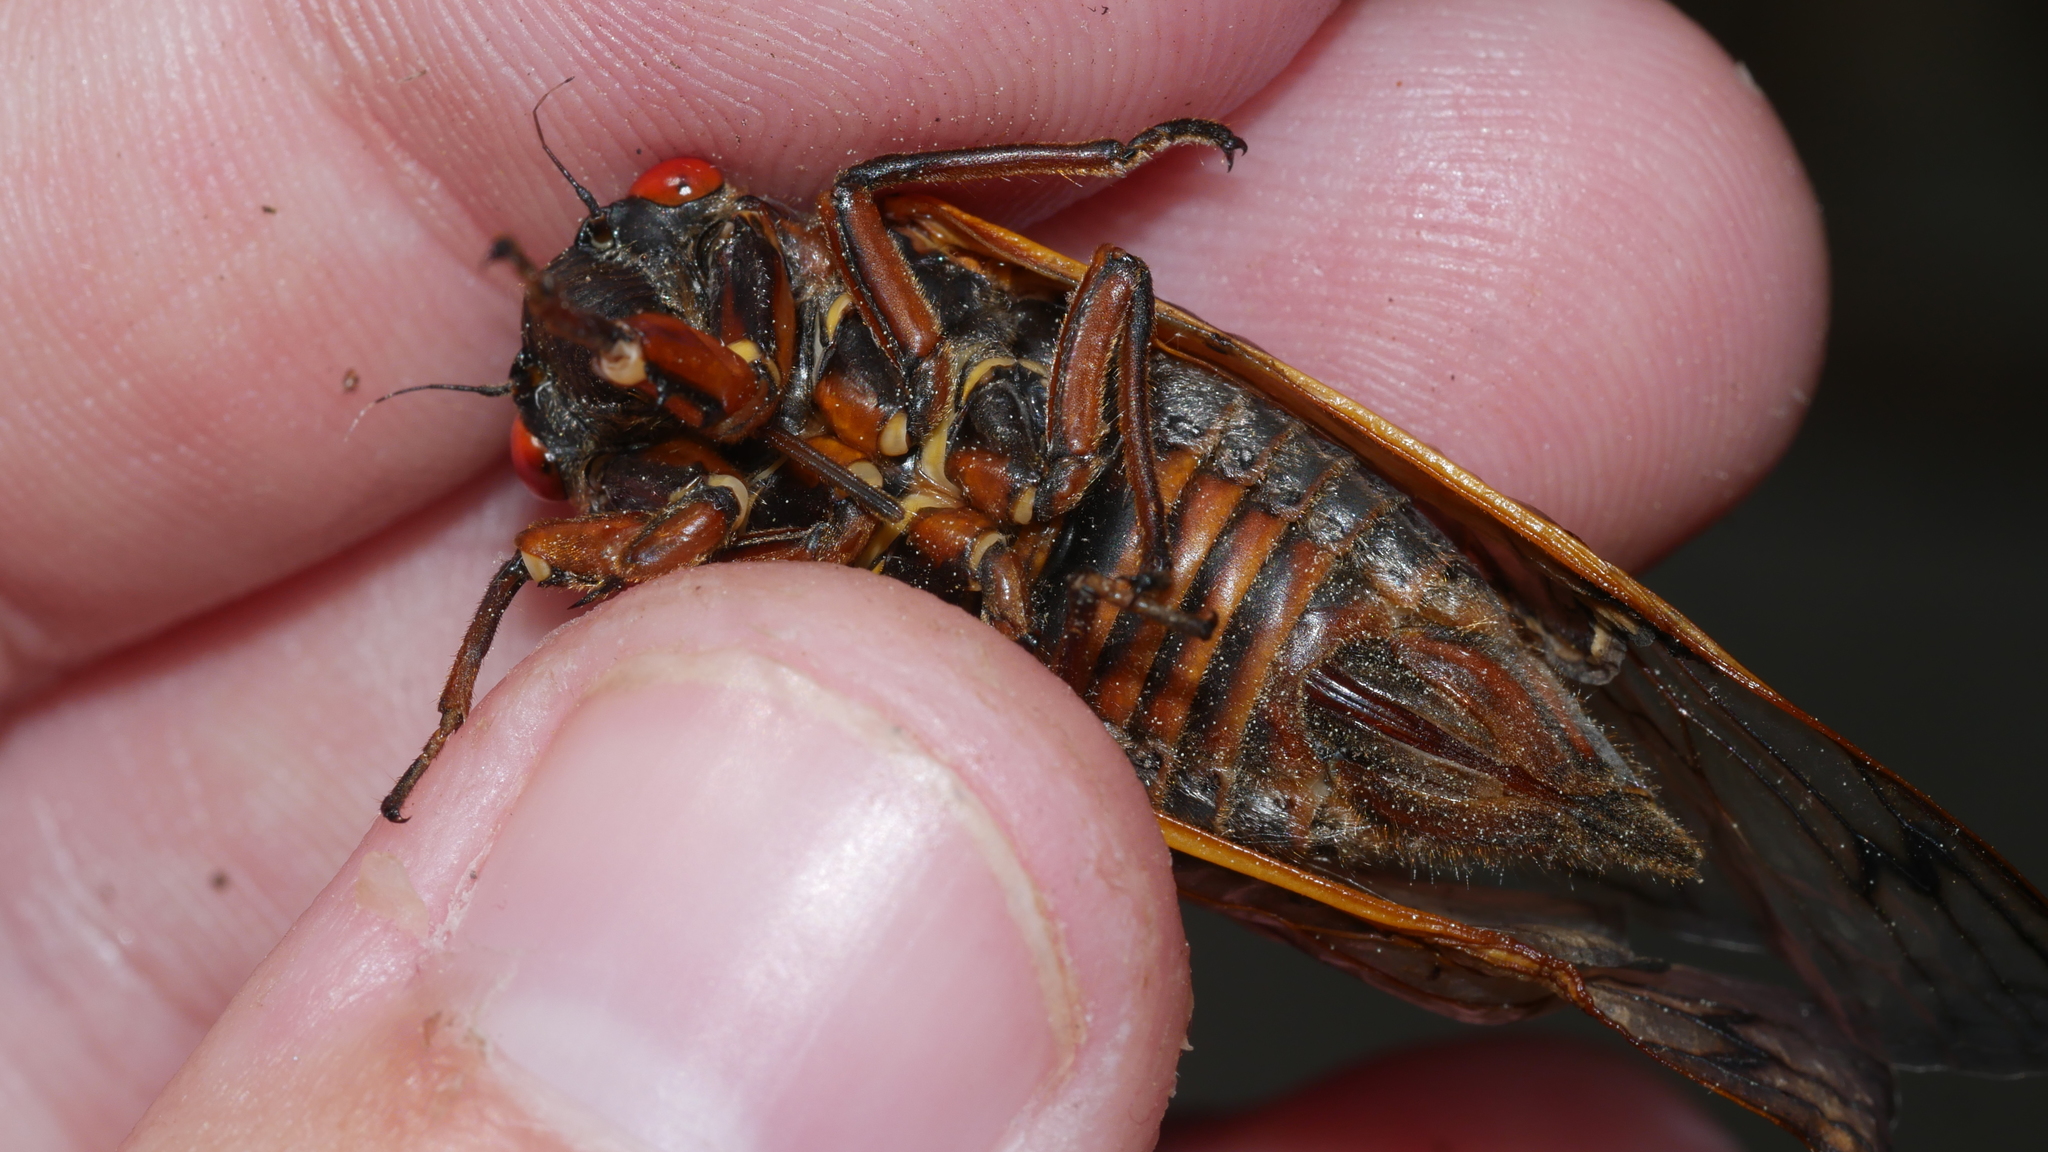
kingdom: Animalia
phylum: Arthropoda
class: Insecta
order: Hemiptera
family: Cicadidae
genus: Magicicada
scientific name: Magicicada septendecim
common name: Periodical cicada
